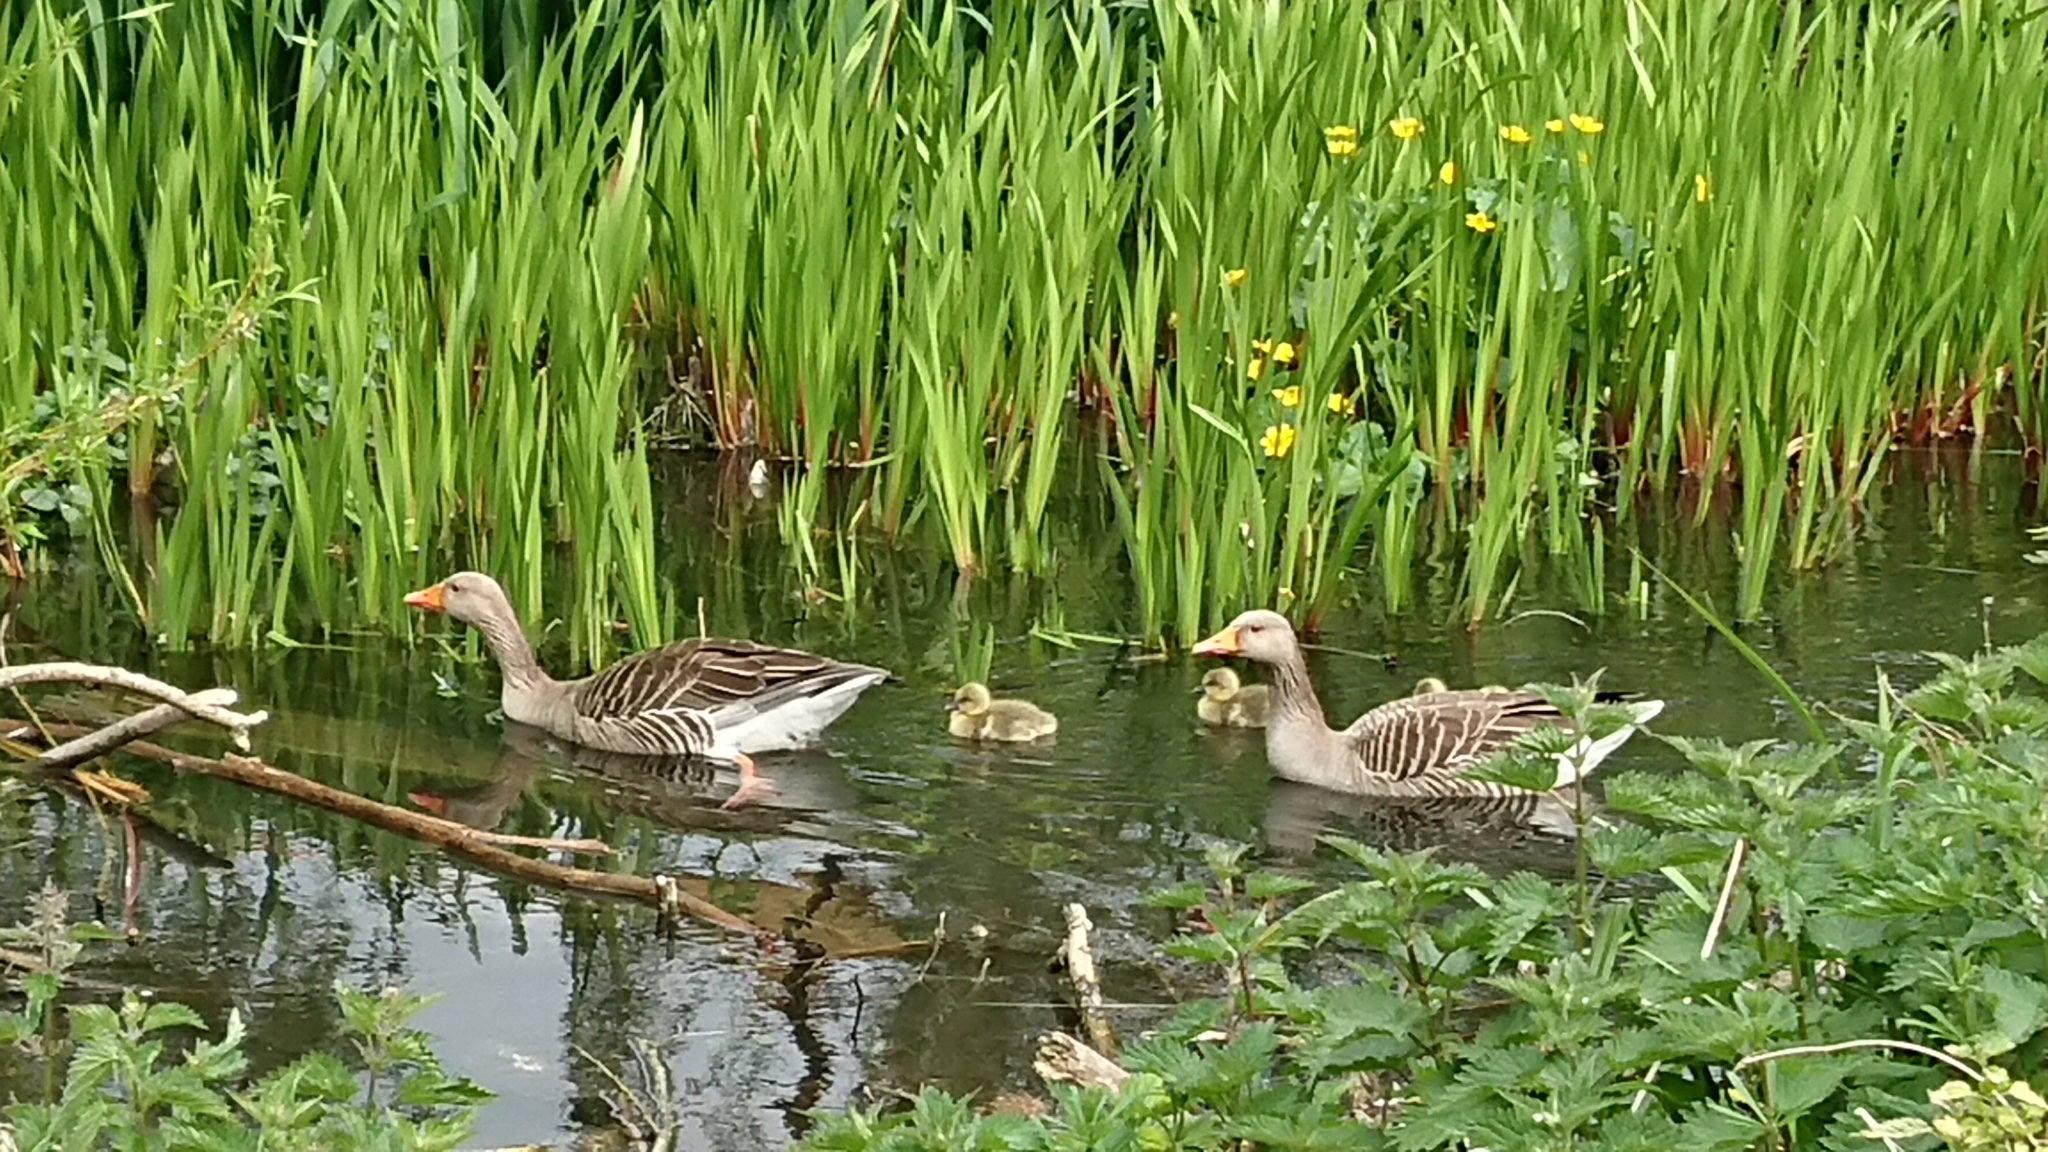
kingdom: Animalia
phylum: Chordata
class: Aves
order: Anseriformes
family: Anatidae
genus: Anser
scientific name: Anser anser
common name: Greylag goose
